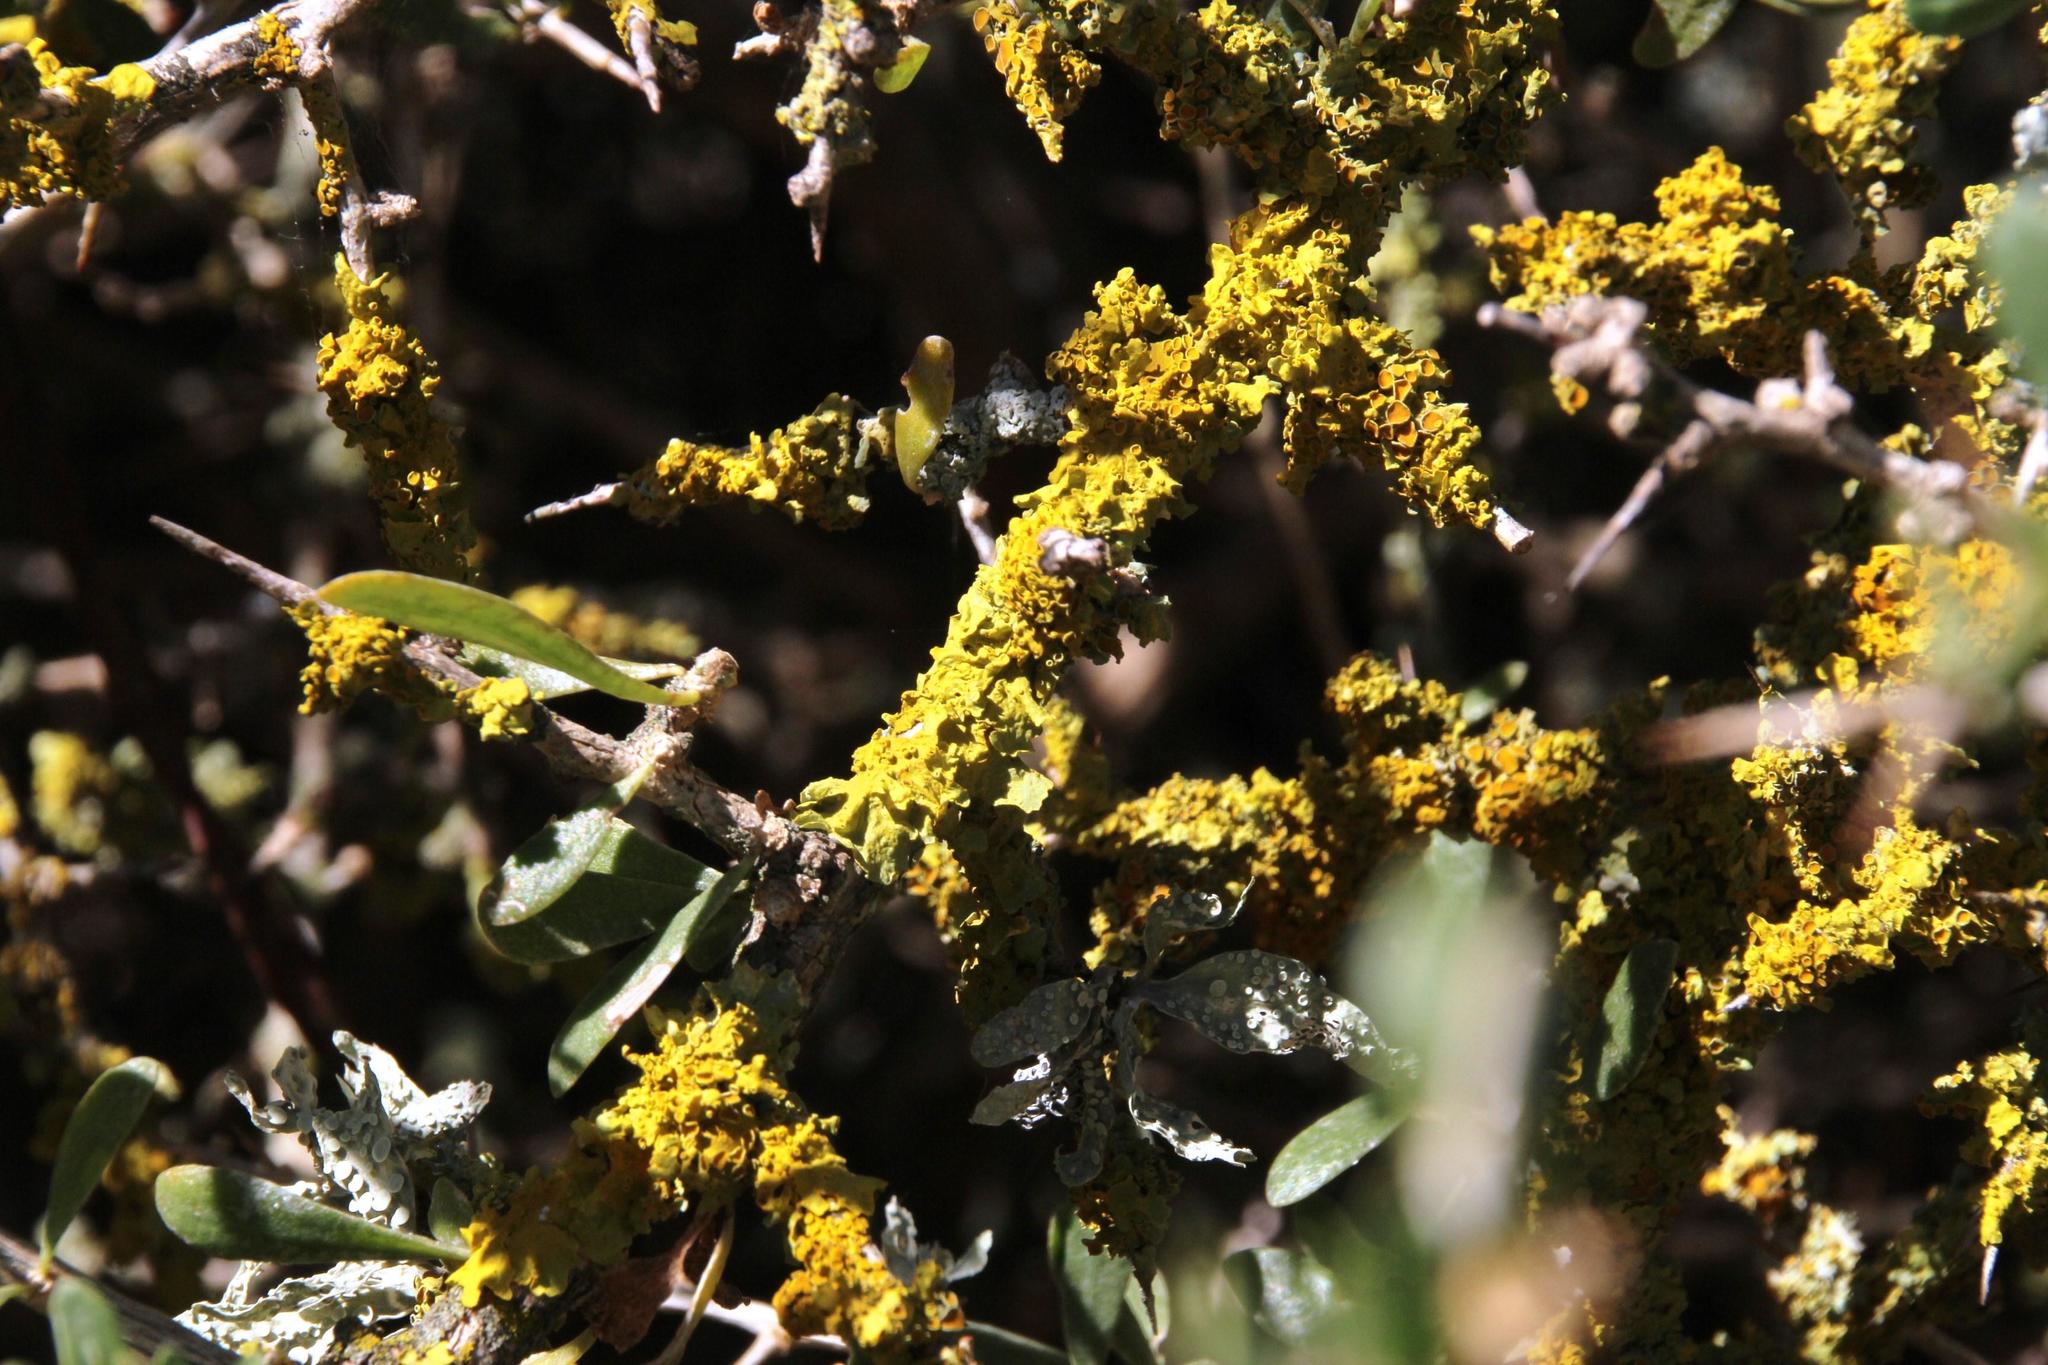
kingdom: Fungi
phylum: Ascomycota
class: Lecanoromycetes
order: Teloschistales
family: Teloschistaceae
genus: Xanthoria
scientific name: Xanthoria parietina
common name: Common orange lichen
